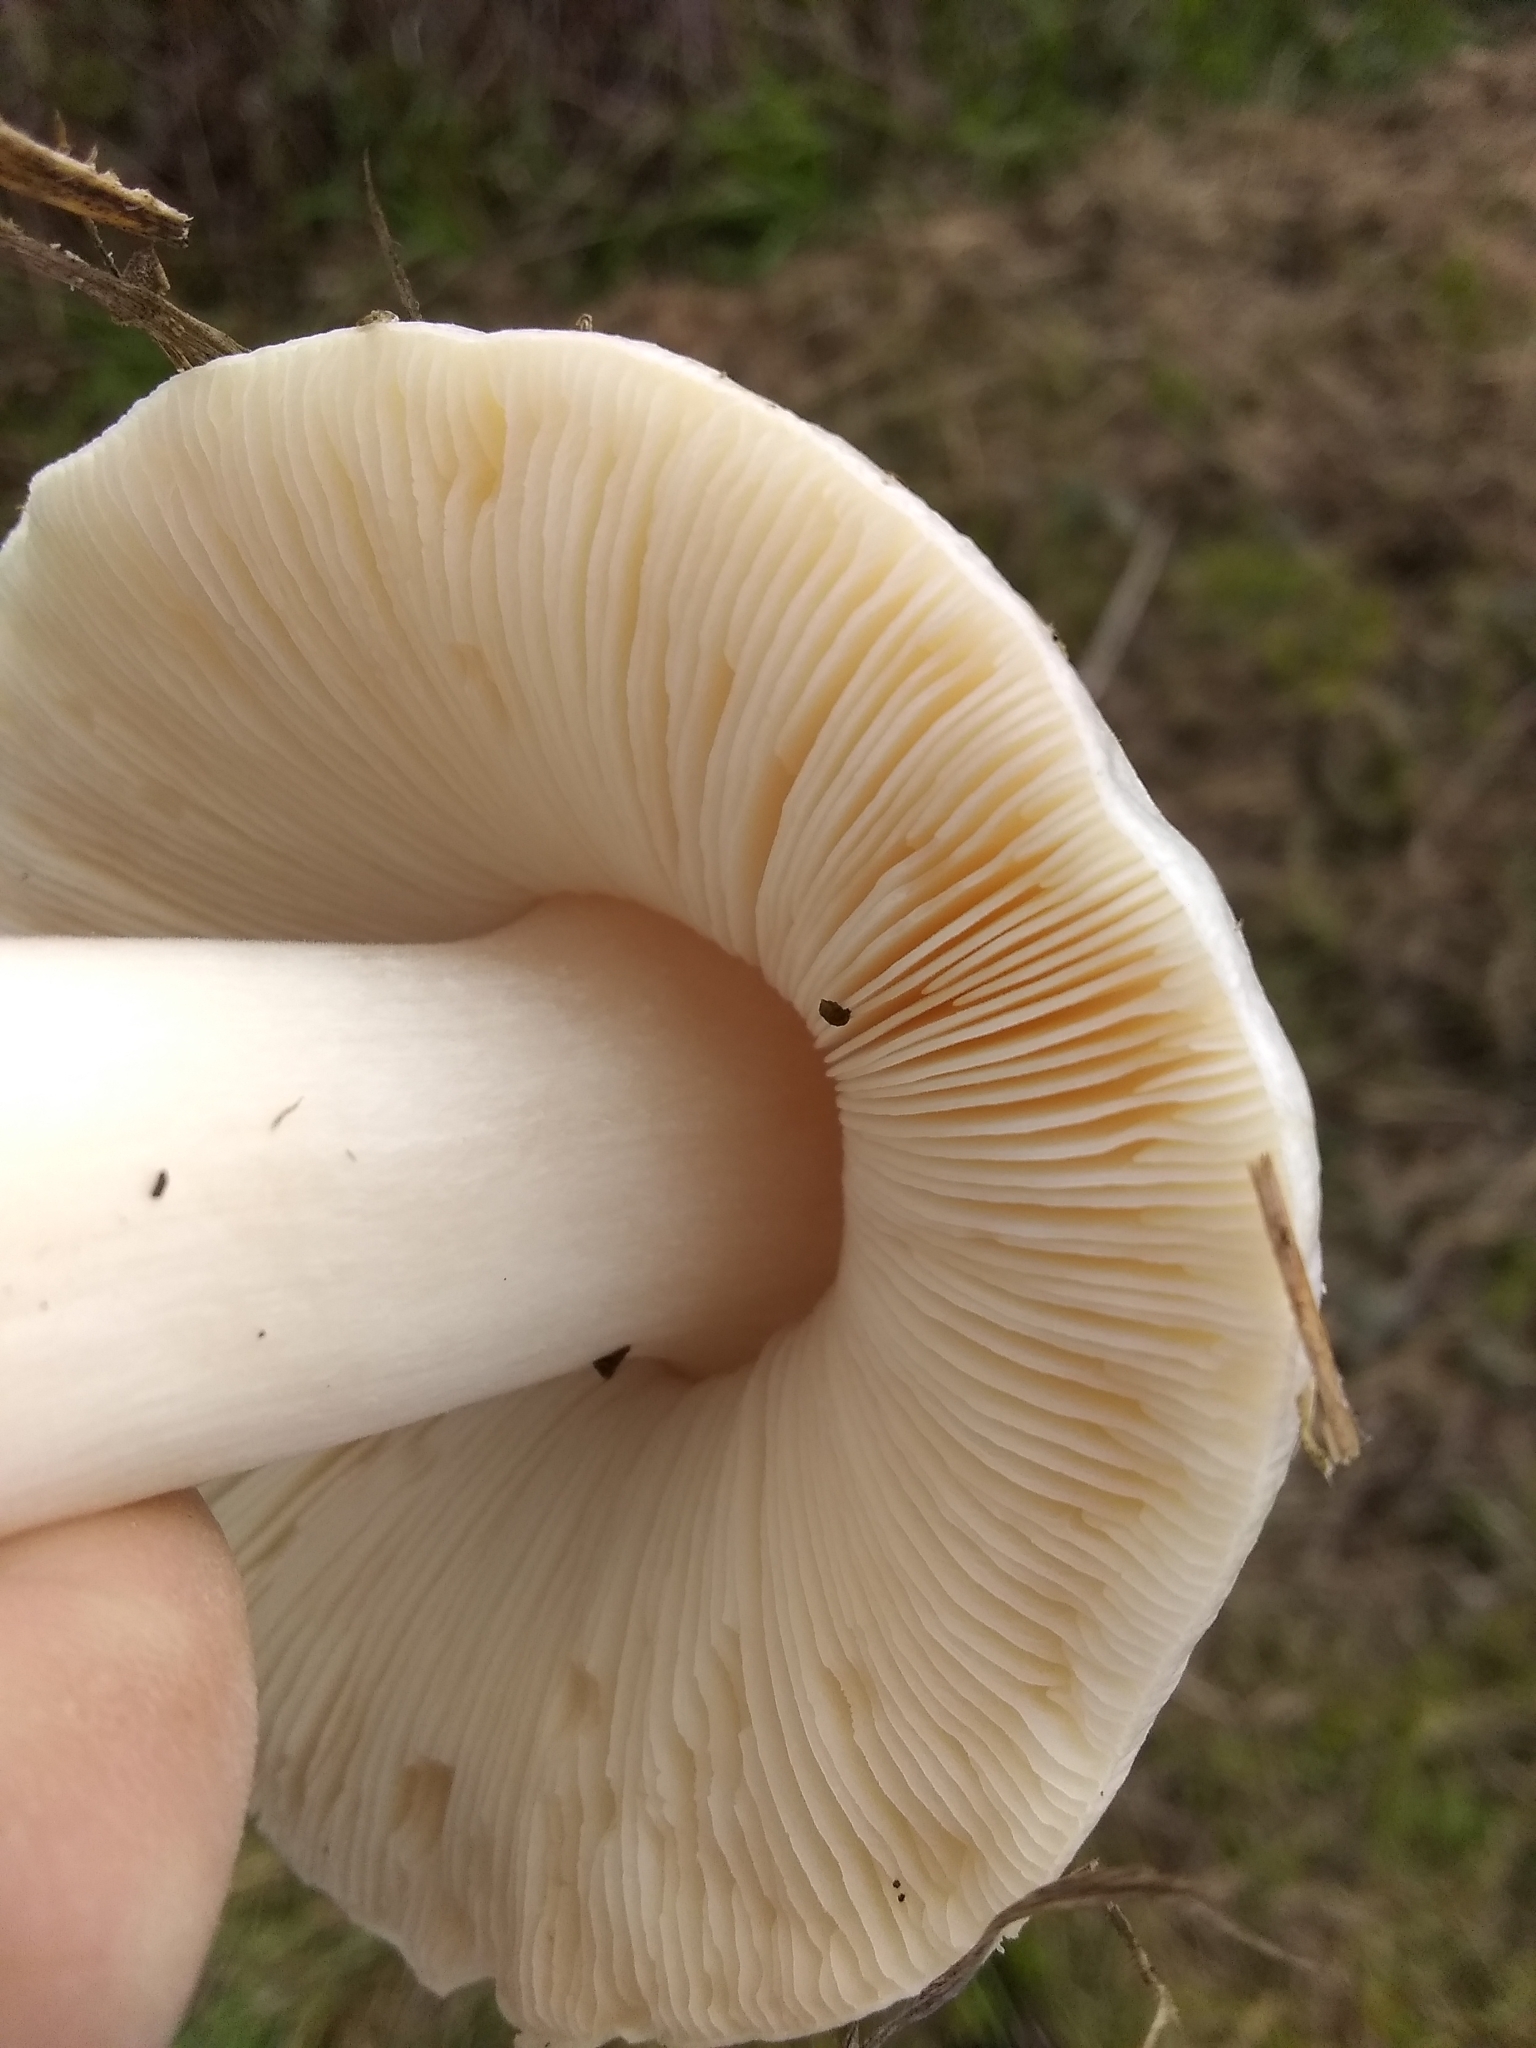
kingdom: Fungi
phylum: Basidiomycota
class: Agaricomycetes
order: Agaricales
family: Pluteaceae
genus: Volvopluteus
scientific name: Volvopluteus gloiocephalus
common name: Stubble rosegill
